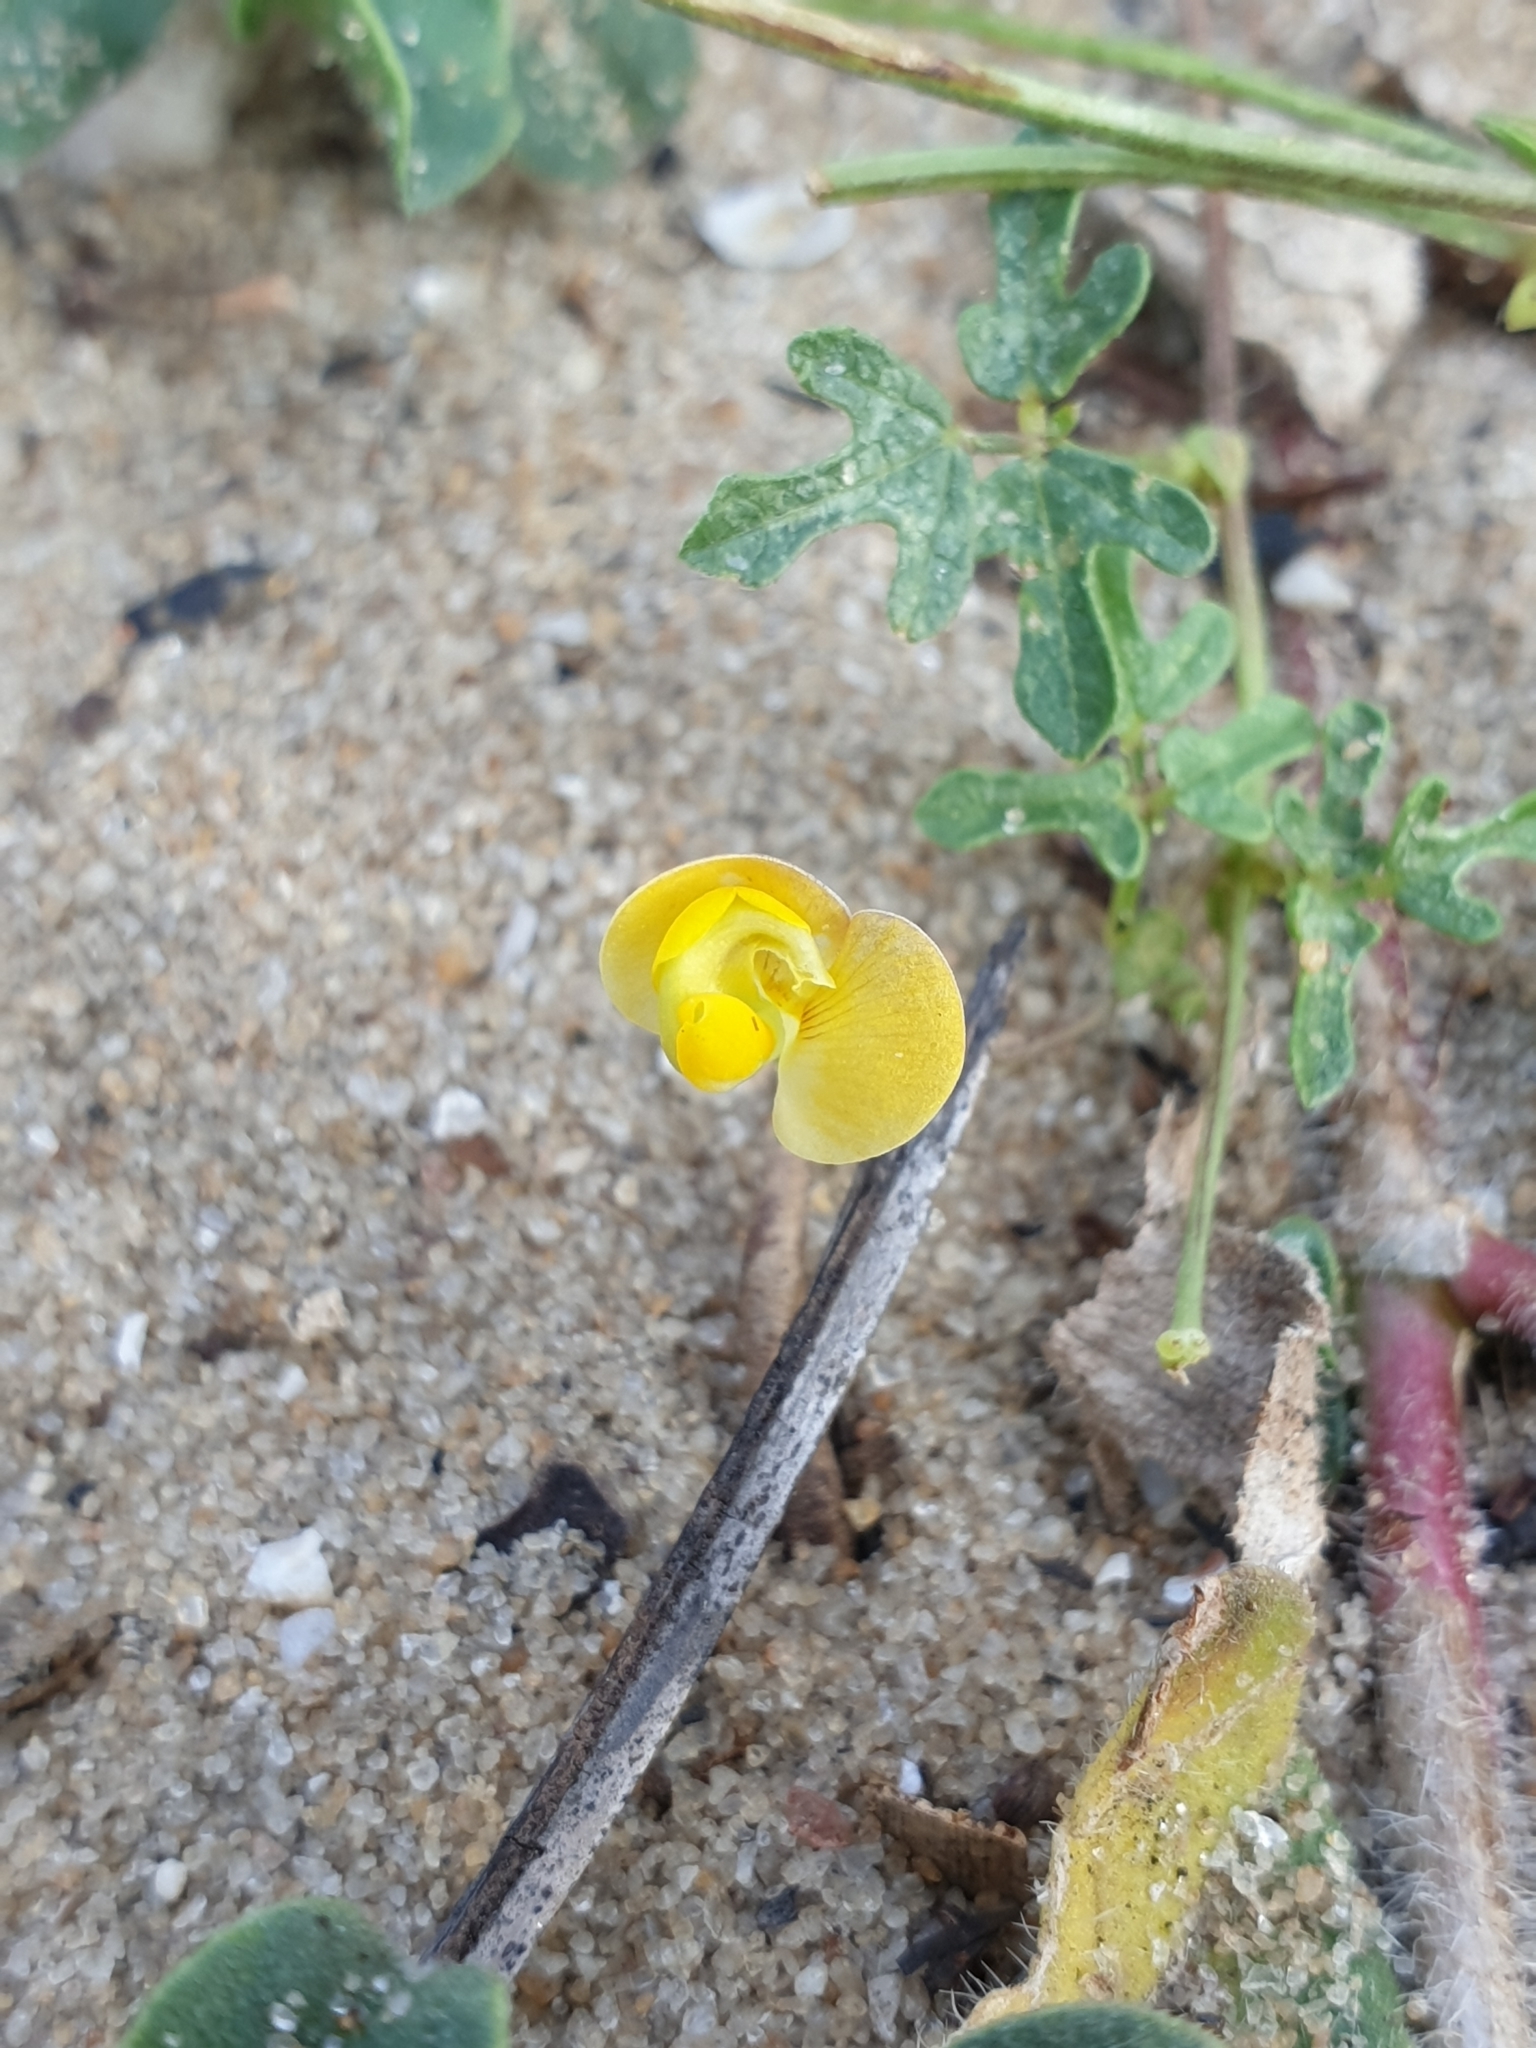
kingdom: Plantae
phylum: Tracheophyta
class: Magnoliopsida
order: Fabales
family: Fabaceae
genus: Vigna
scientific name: Vigna aconitifolia
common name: Dew bean
